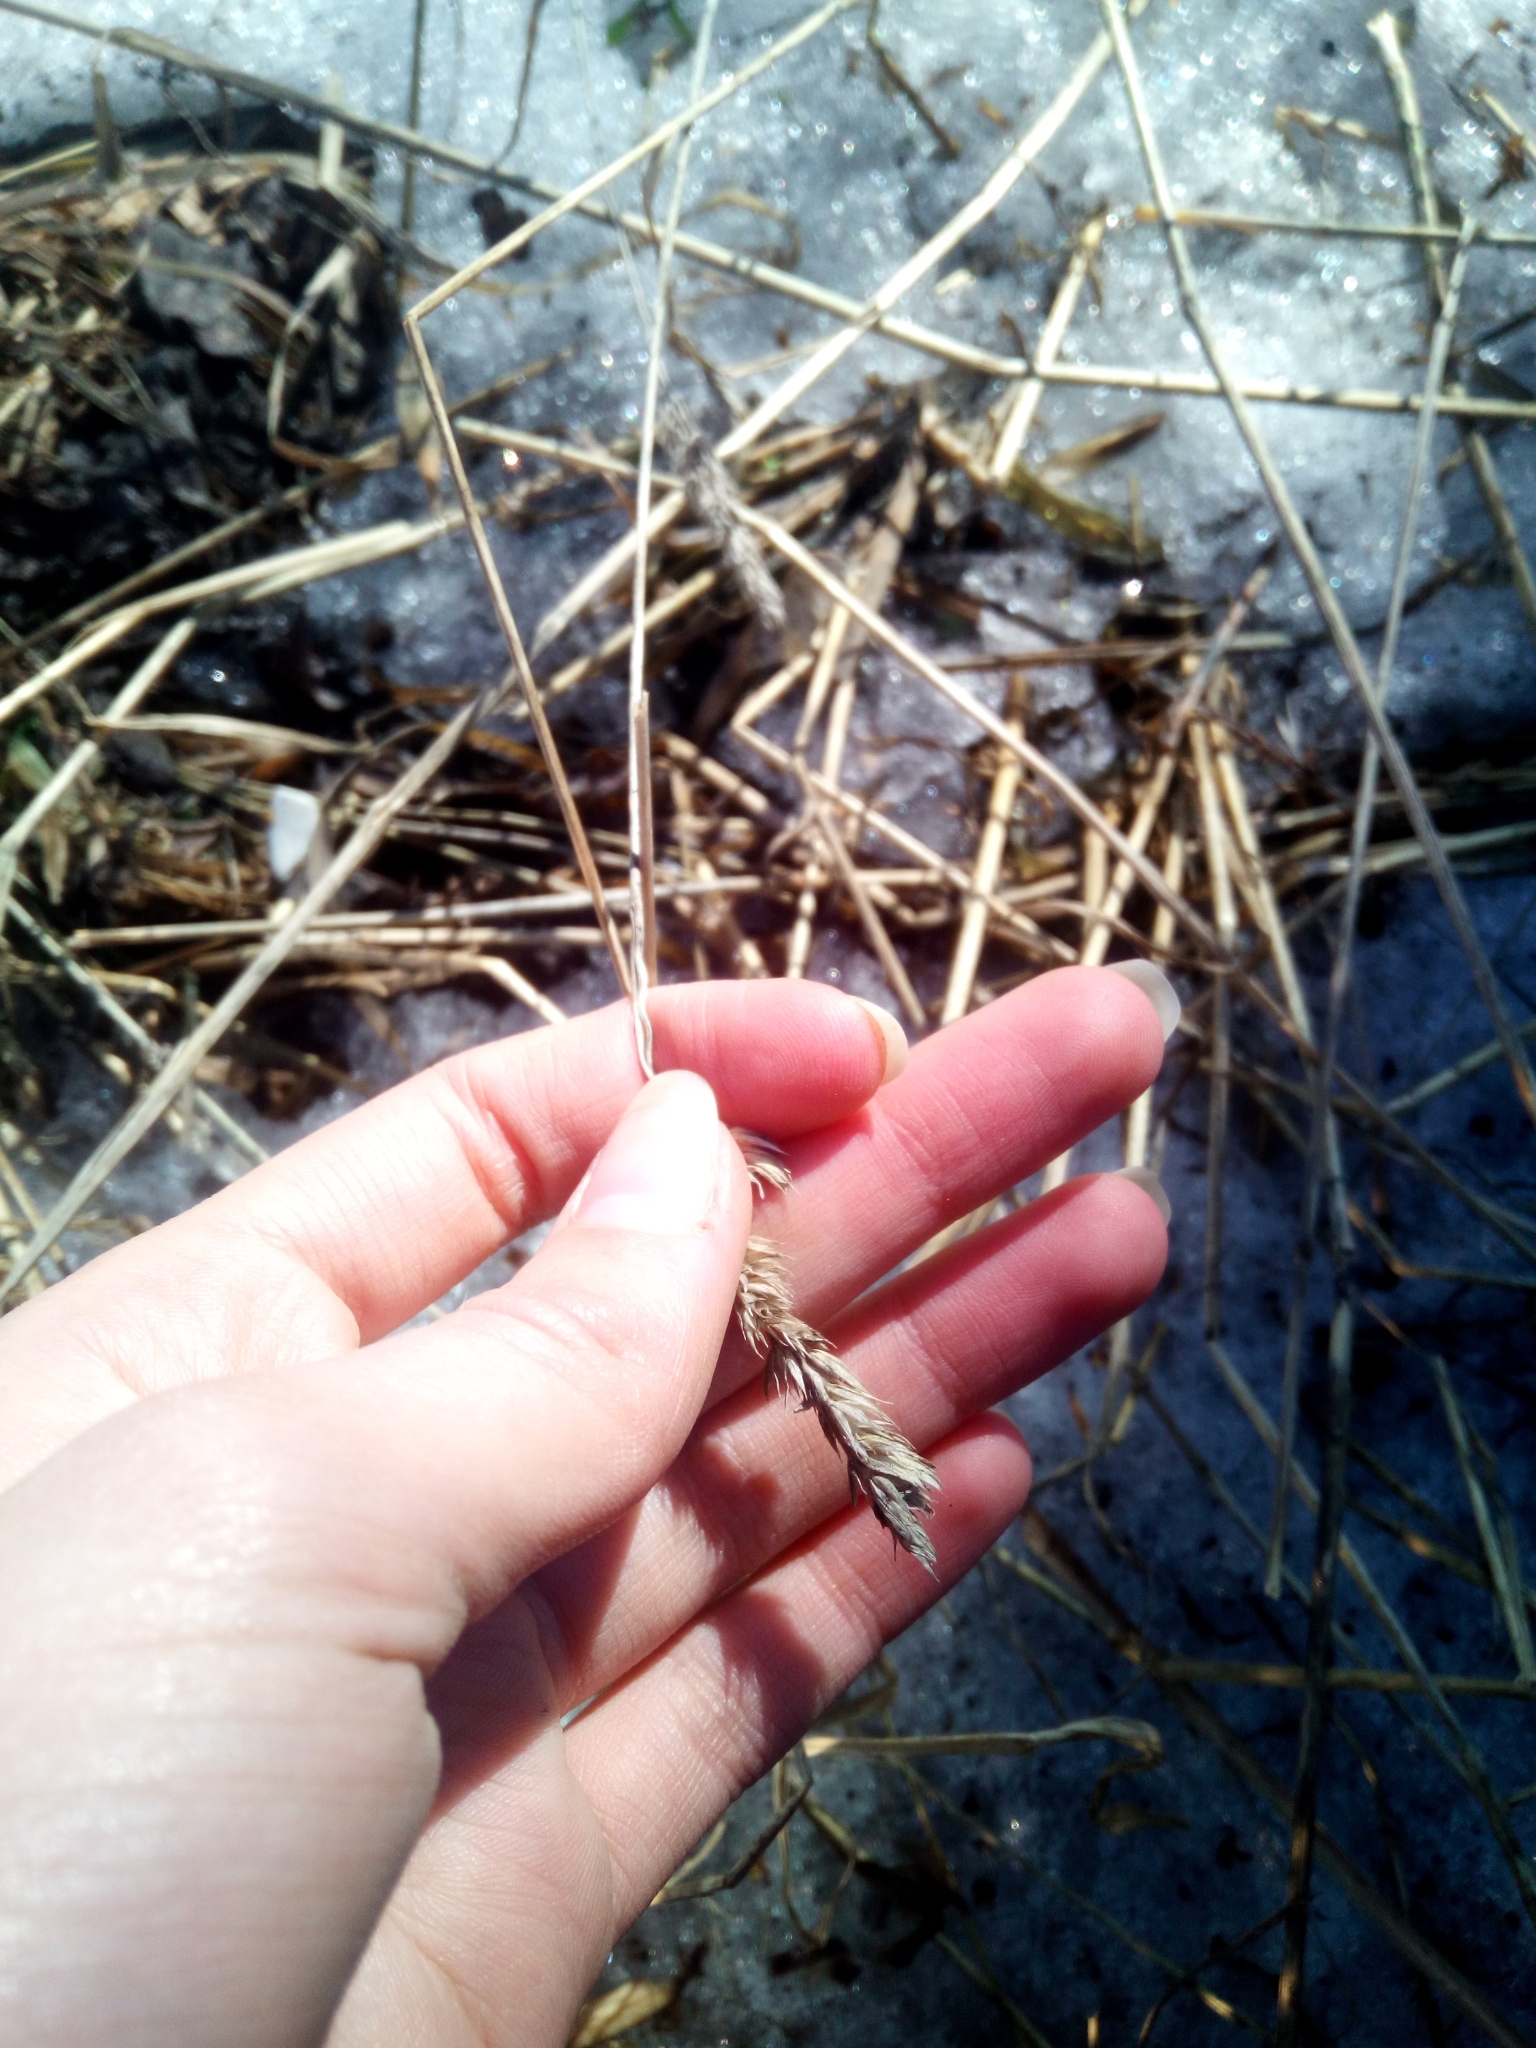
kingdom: Plantae
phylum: Tracheophyta
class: Liliopsida
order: Poales
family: Poaceae
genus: Dactylis
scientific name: Dactylis glomerata
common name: Orchardgrass
